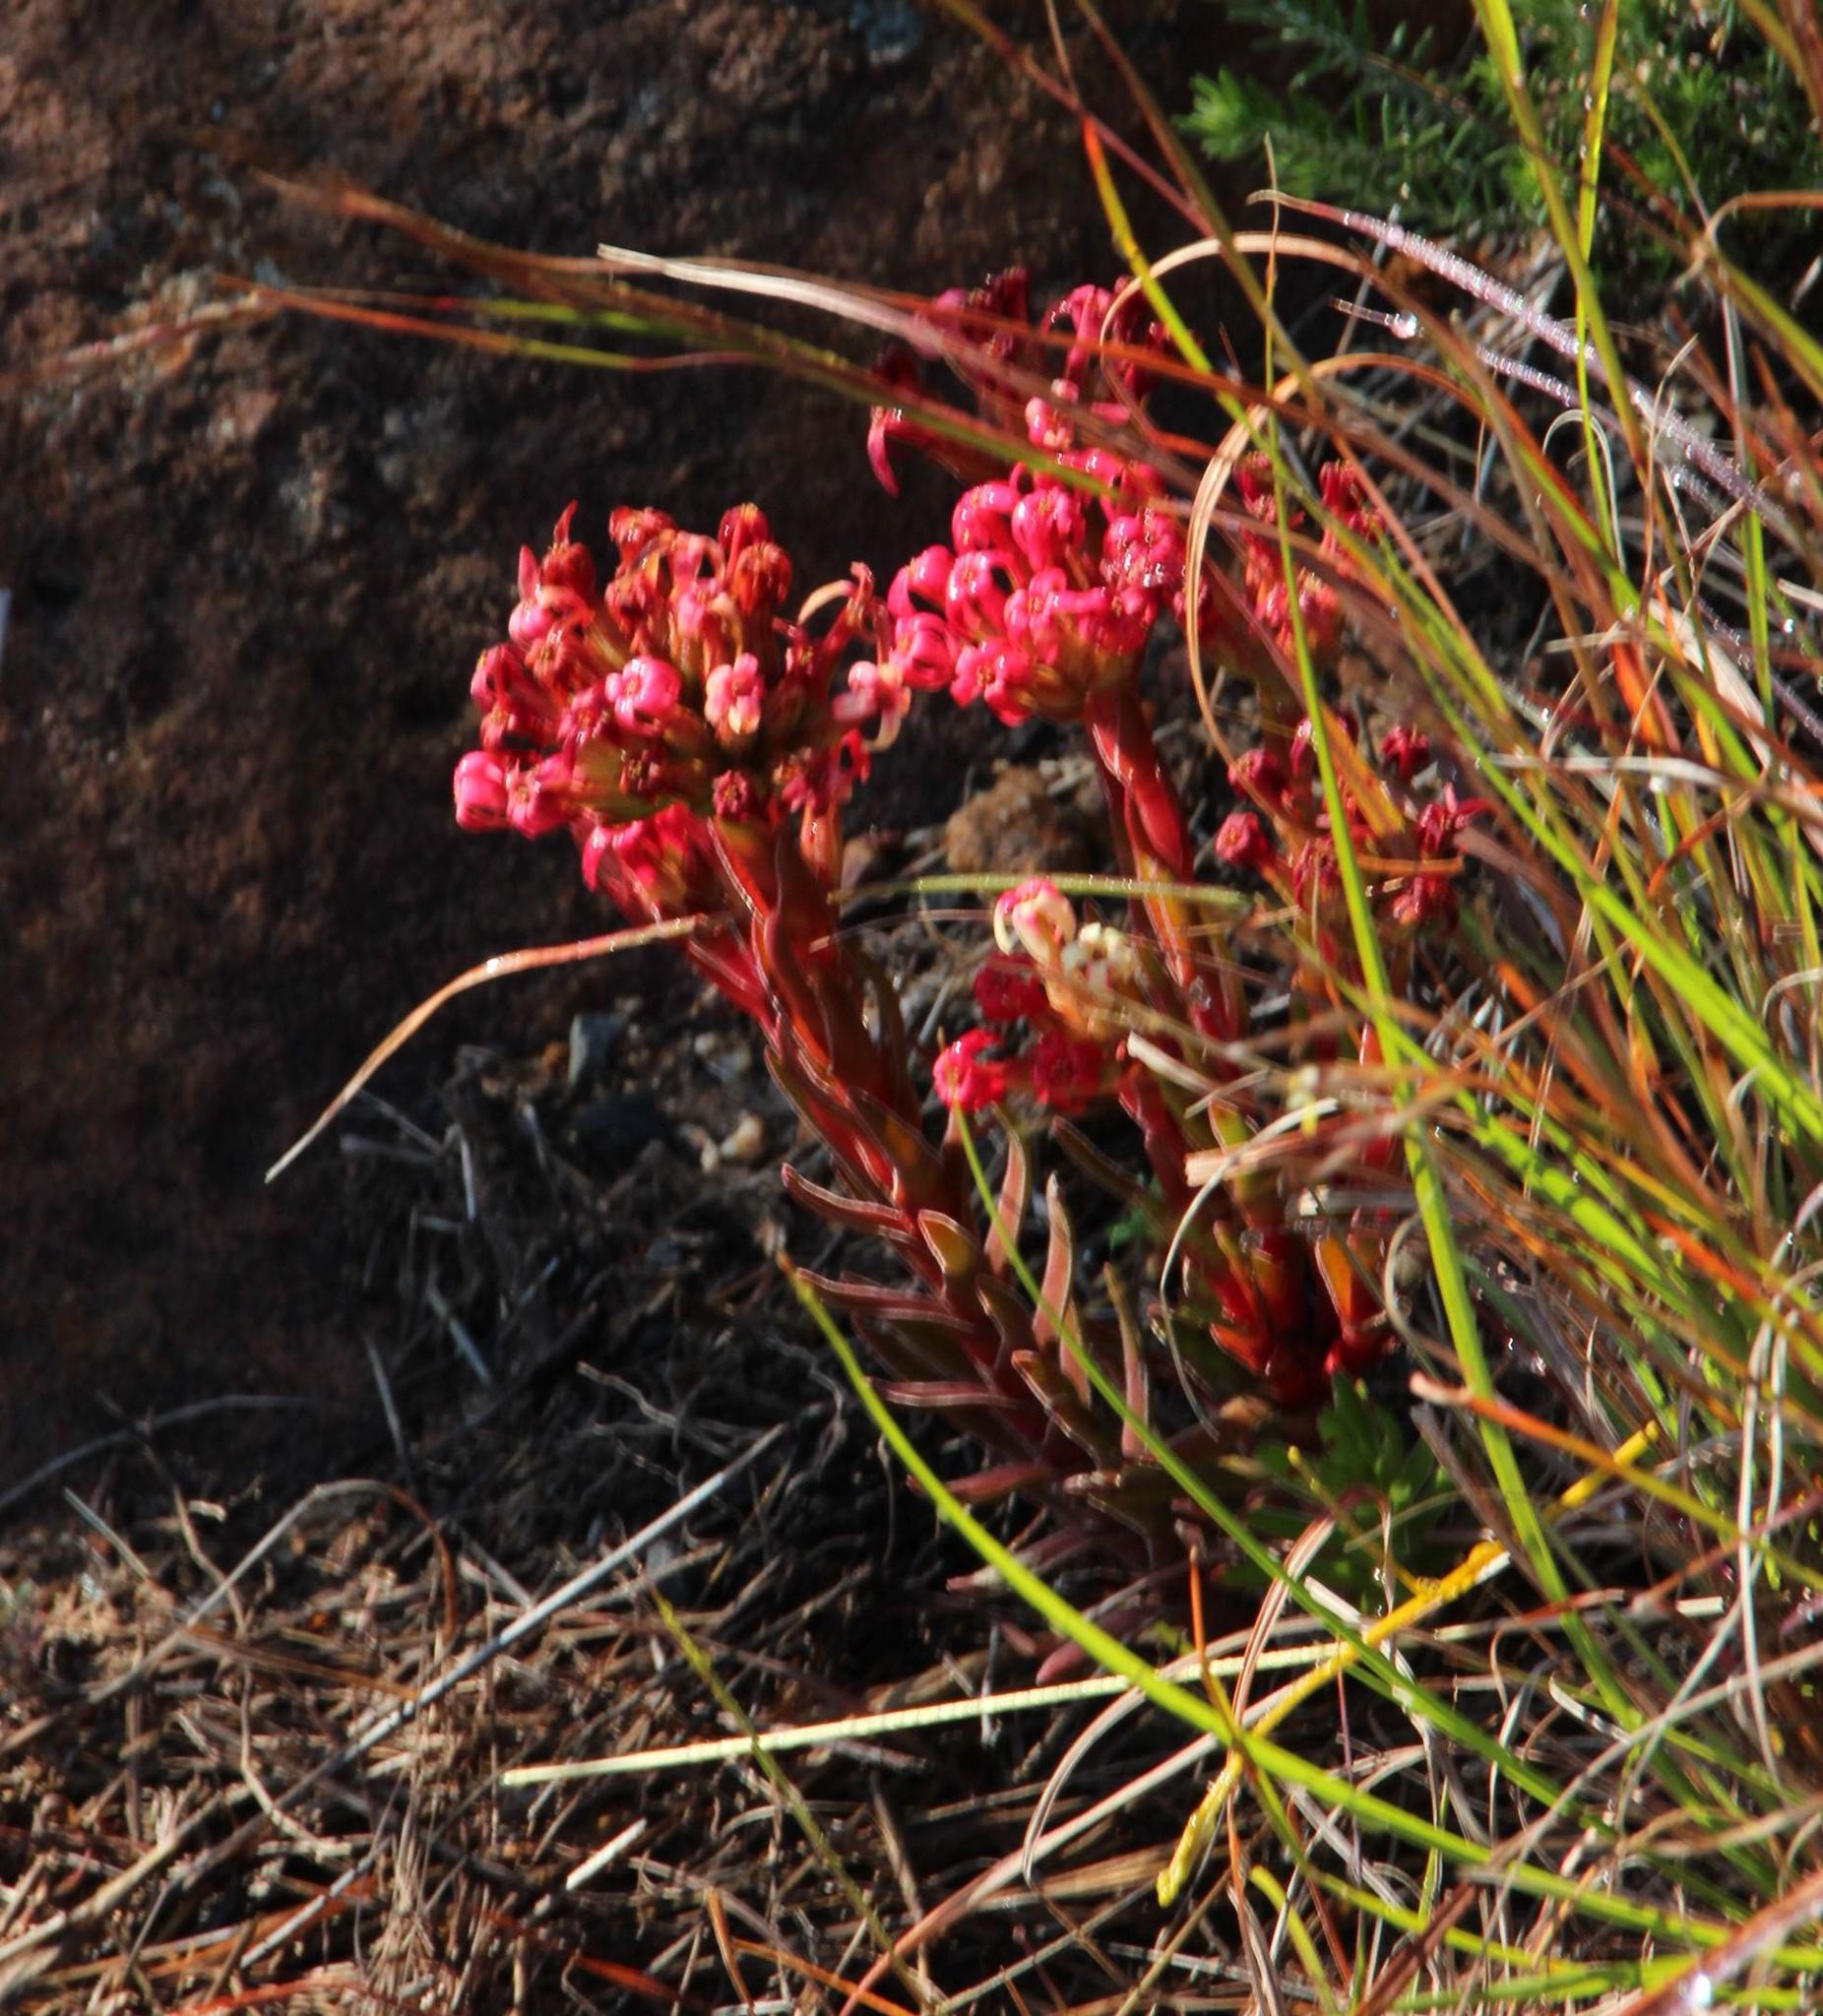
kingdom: Plantae
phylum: Tracheophyta
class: Magnoliopsida
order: Saxifragales
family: Crassulaceae
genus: Crassula
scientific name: Crassula coccinea
